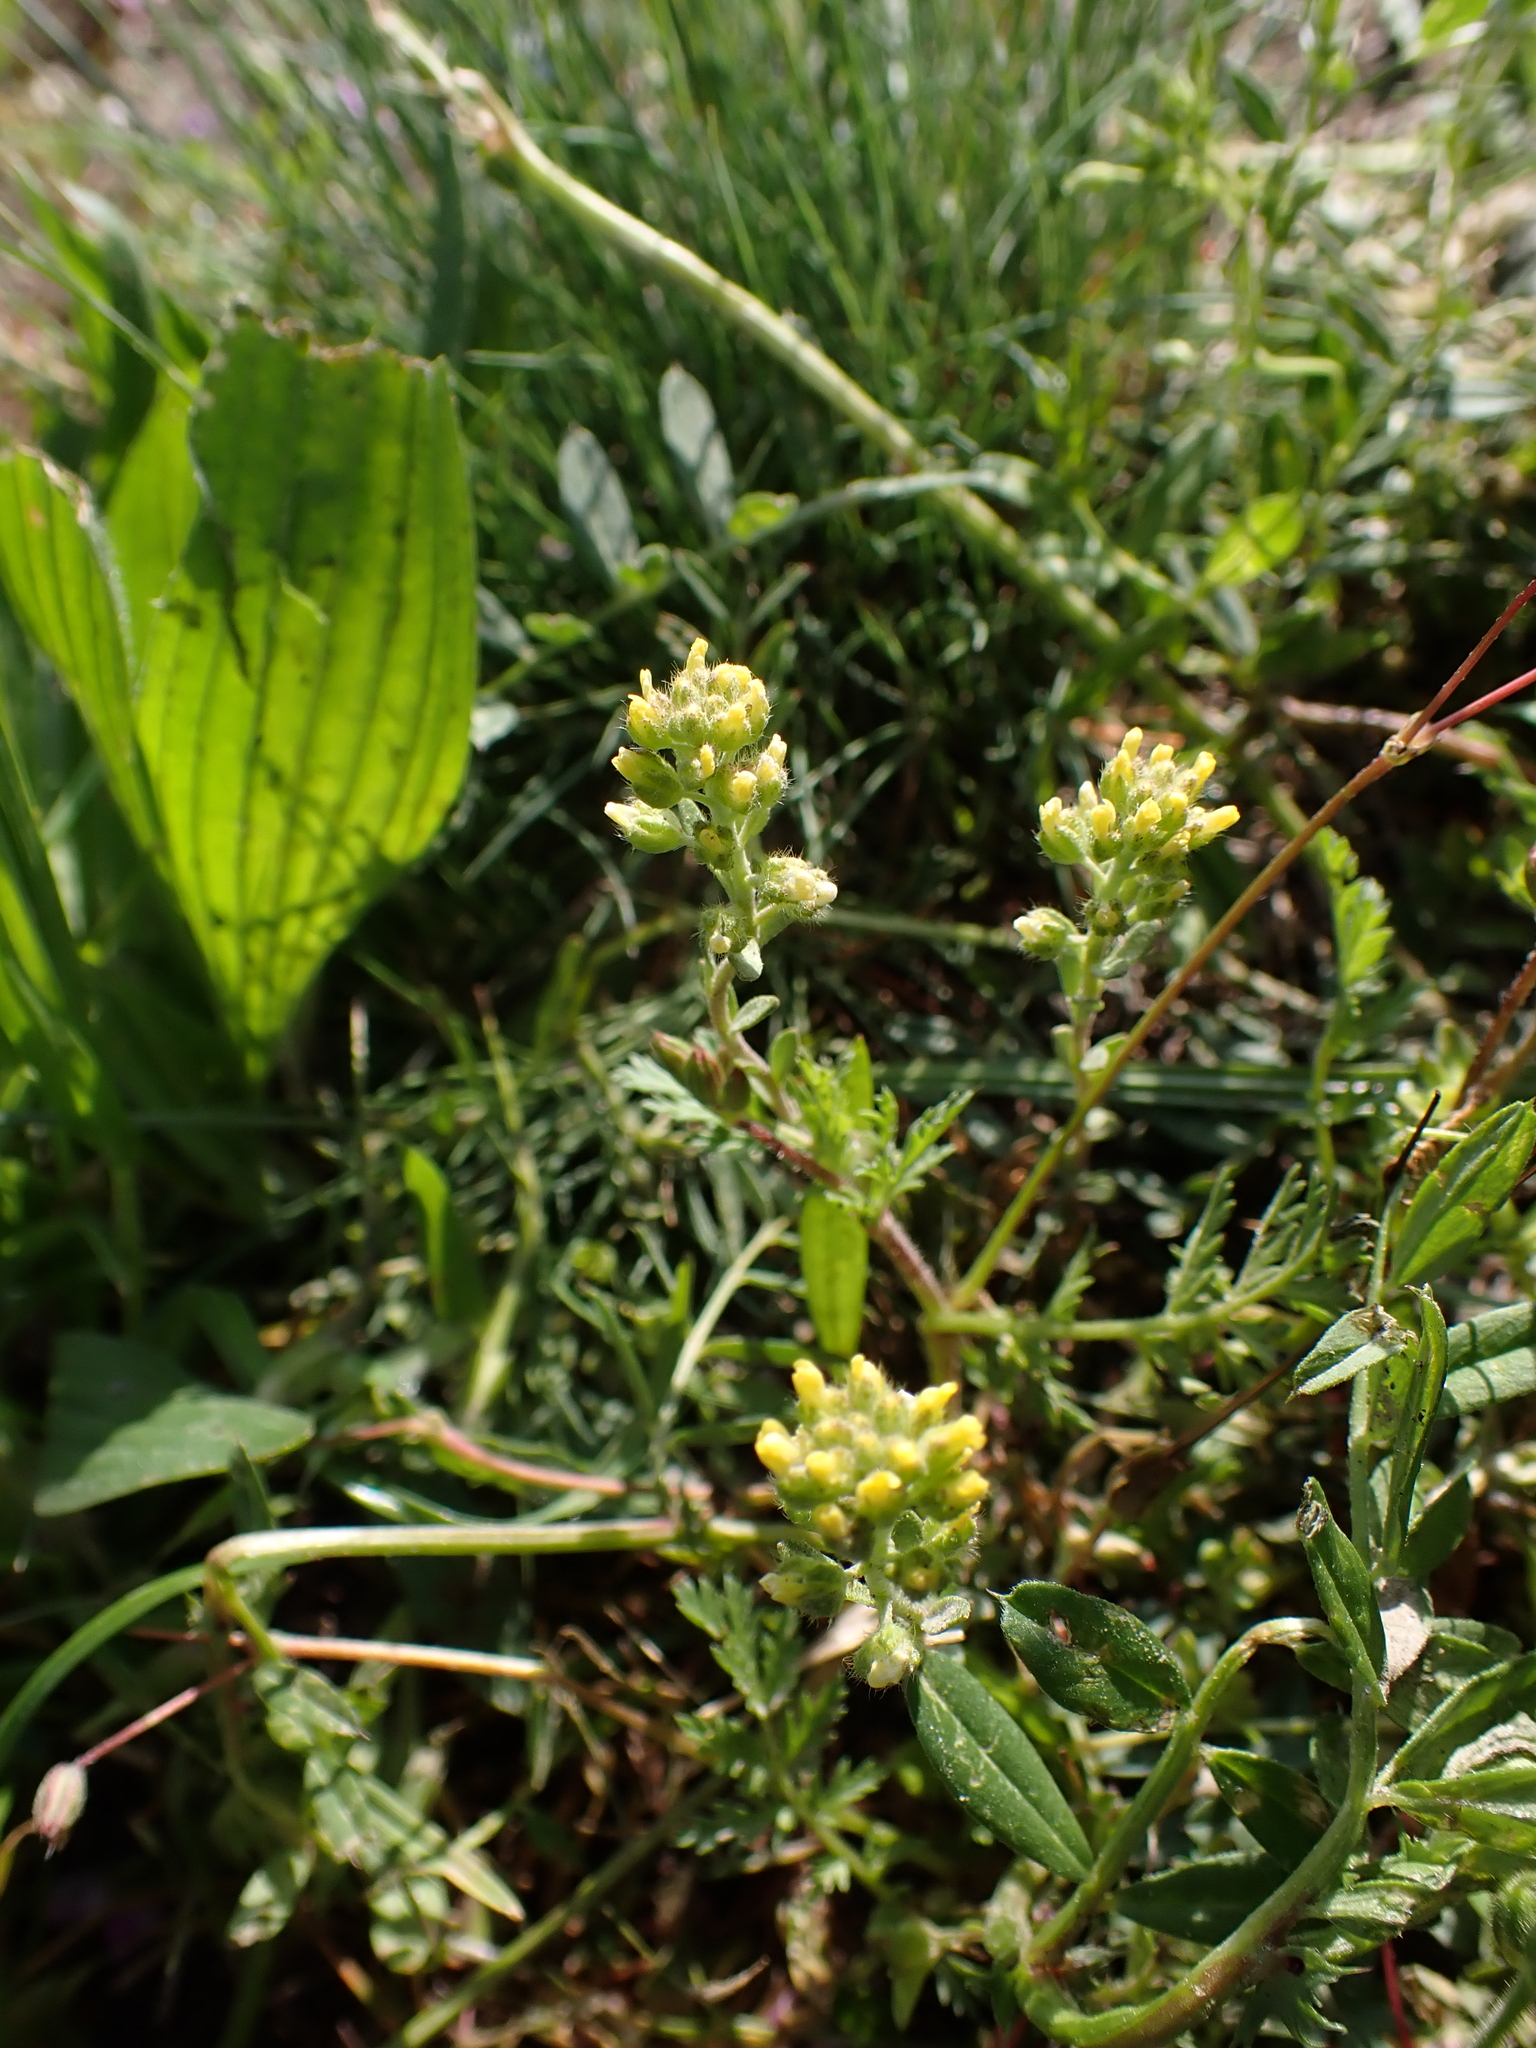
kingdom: Plantae
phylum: Tracheophyta
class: Magnoliopsida
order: Brassicales
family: Brassicaceae
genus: Alyssum
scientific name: Alyssum alyssoides
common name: Small alison
